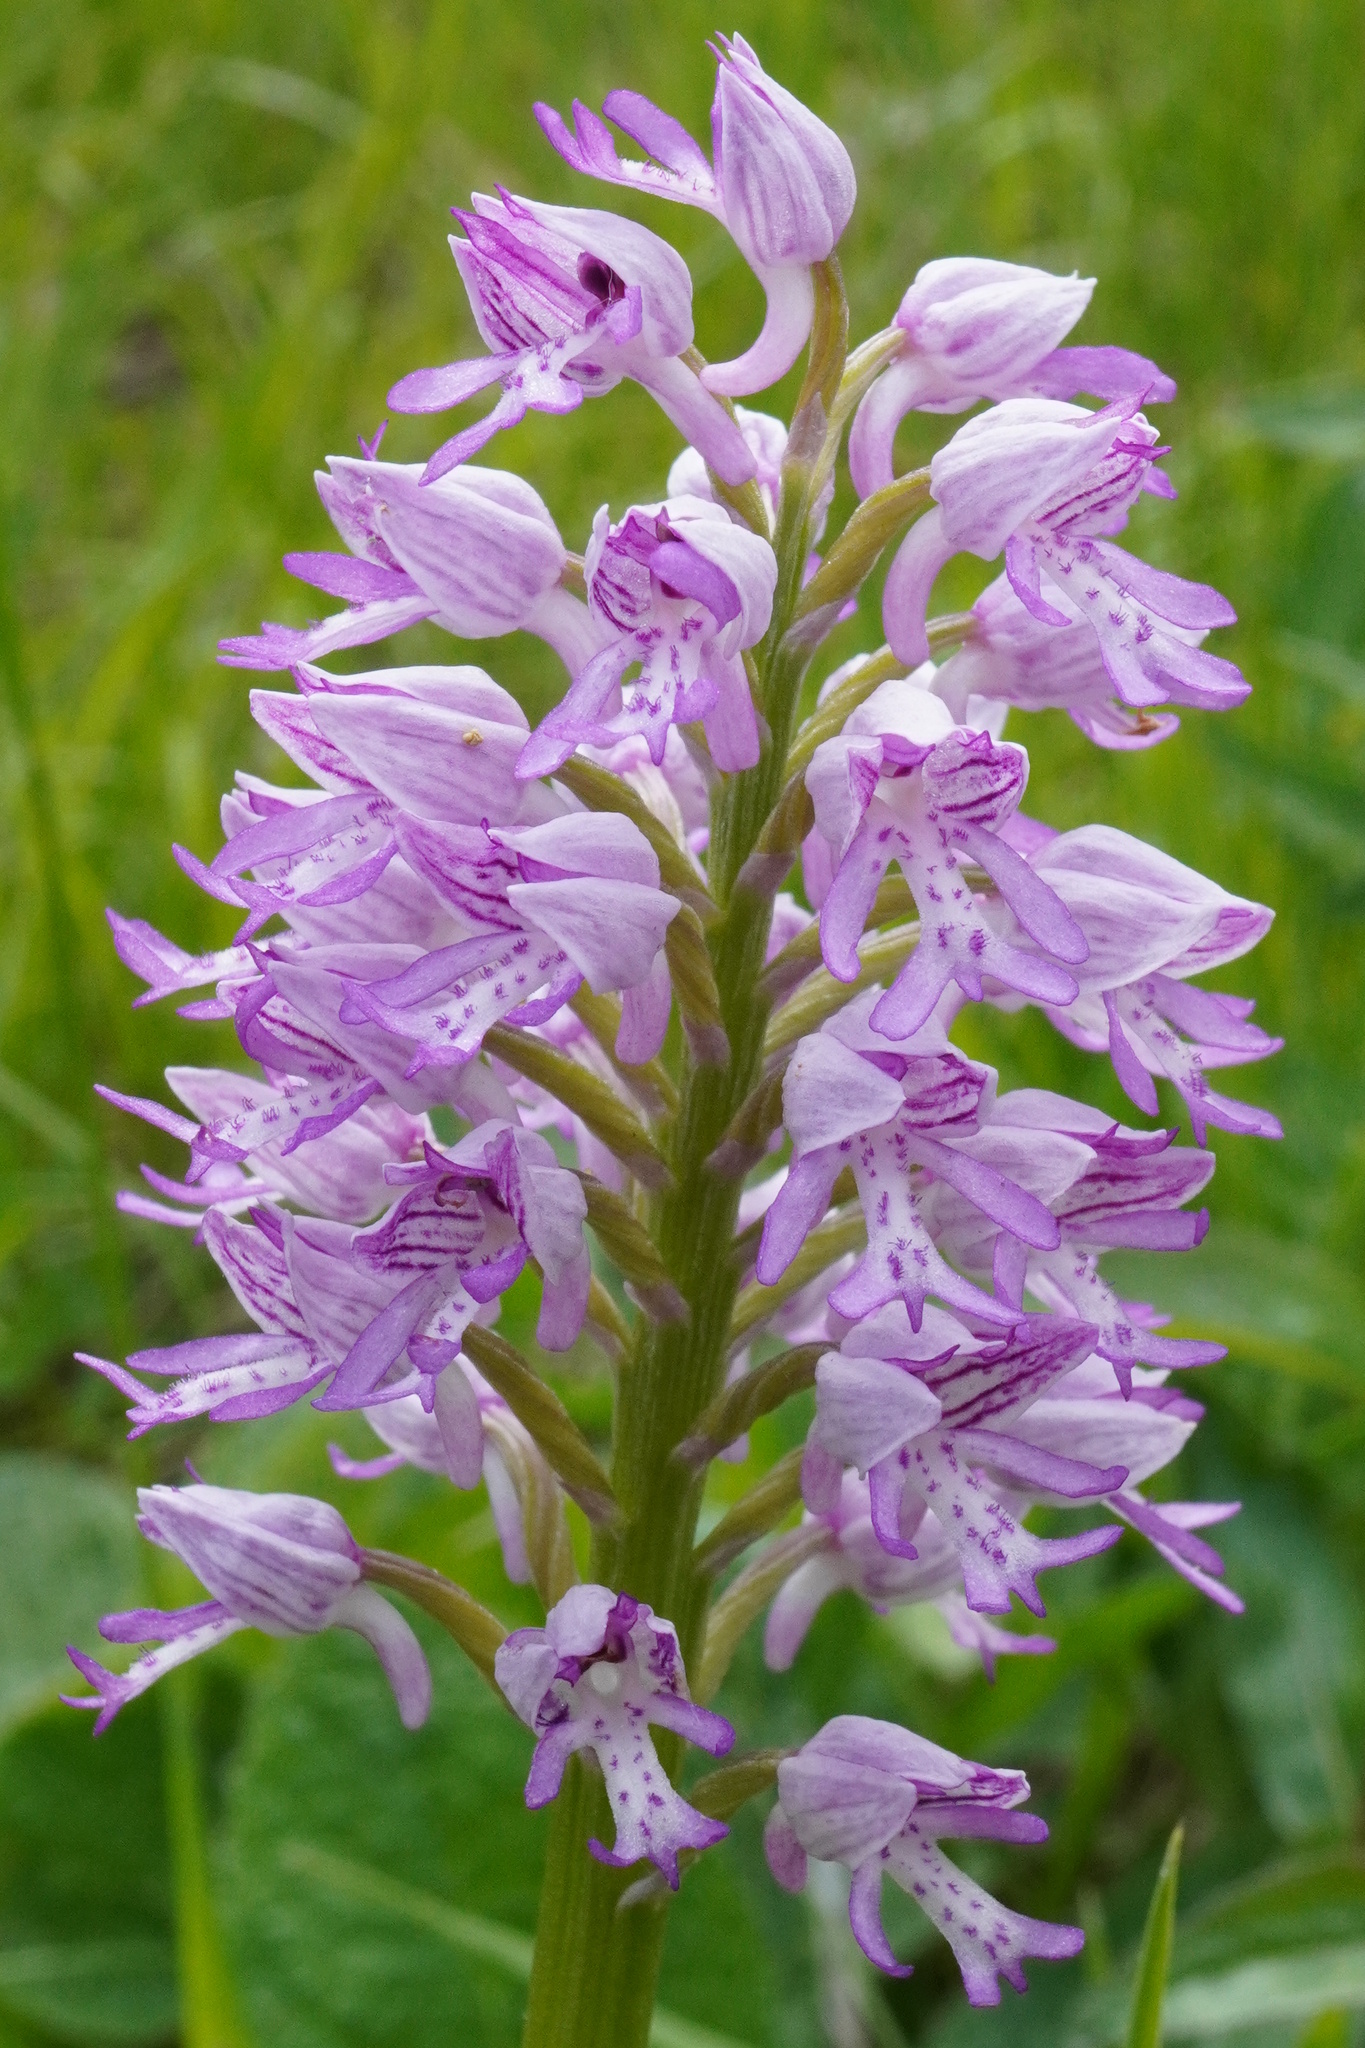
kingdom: Plantae
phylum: Tracheophyta
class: Liliopsida
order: Asparagales
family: Orchidaceae
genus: Orchis
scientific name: Orchis militaris
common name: Military orchid
